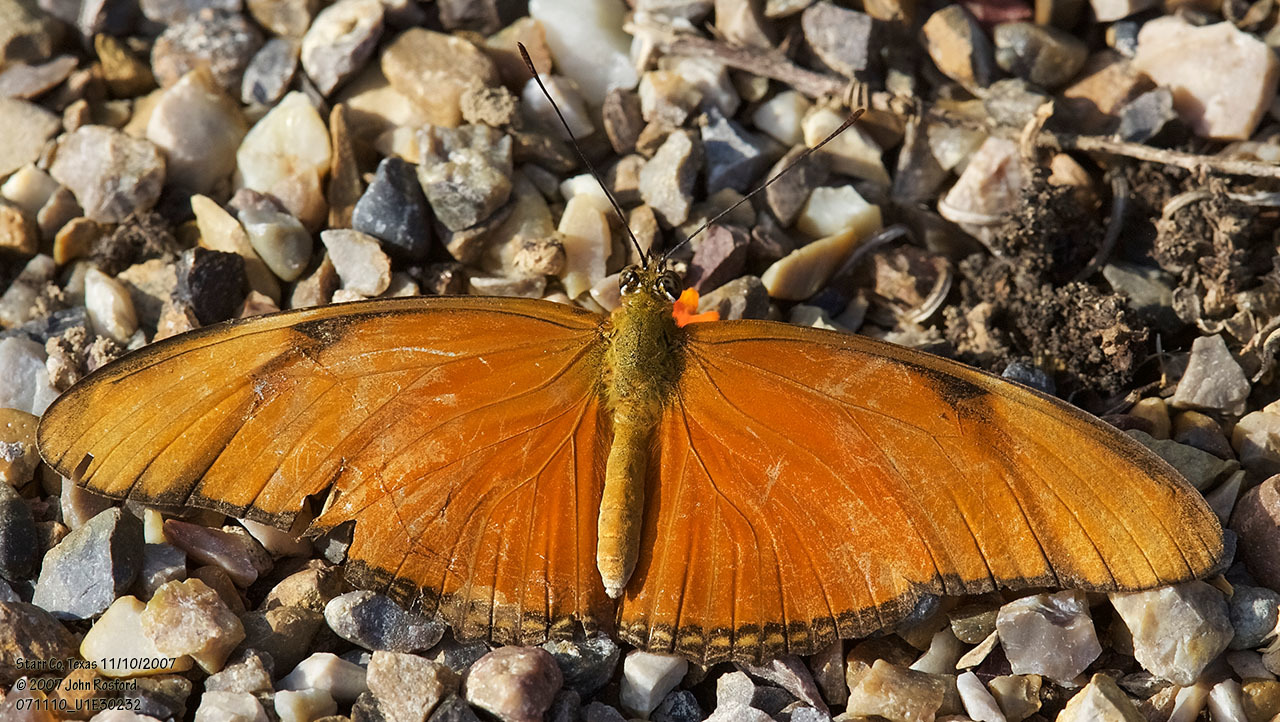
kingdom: Animalia
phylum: Arthropoda
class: Insecta
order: Lepidoptera
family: Nymphalidae
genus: Dryas
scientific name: Dryas iulia
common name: Flambeau
